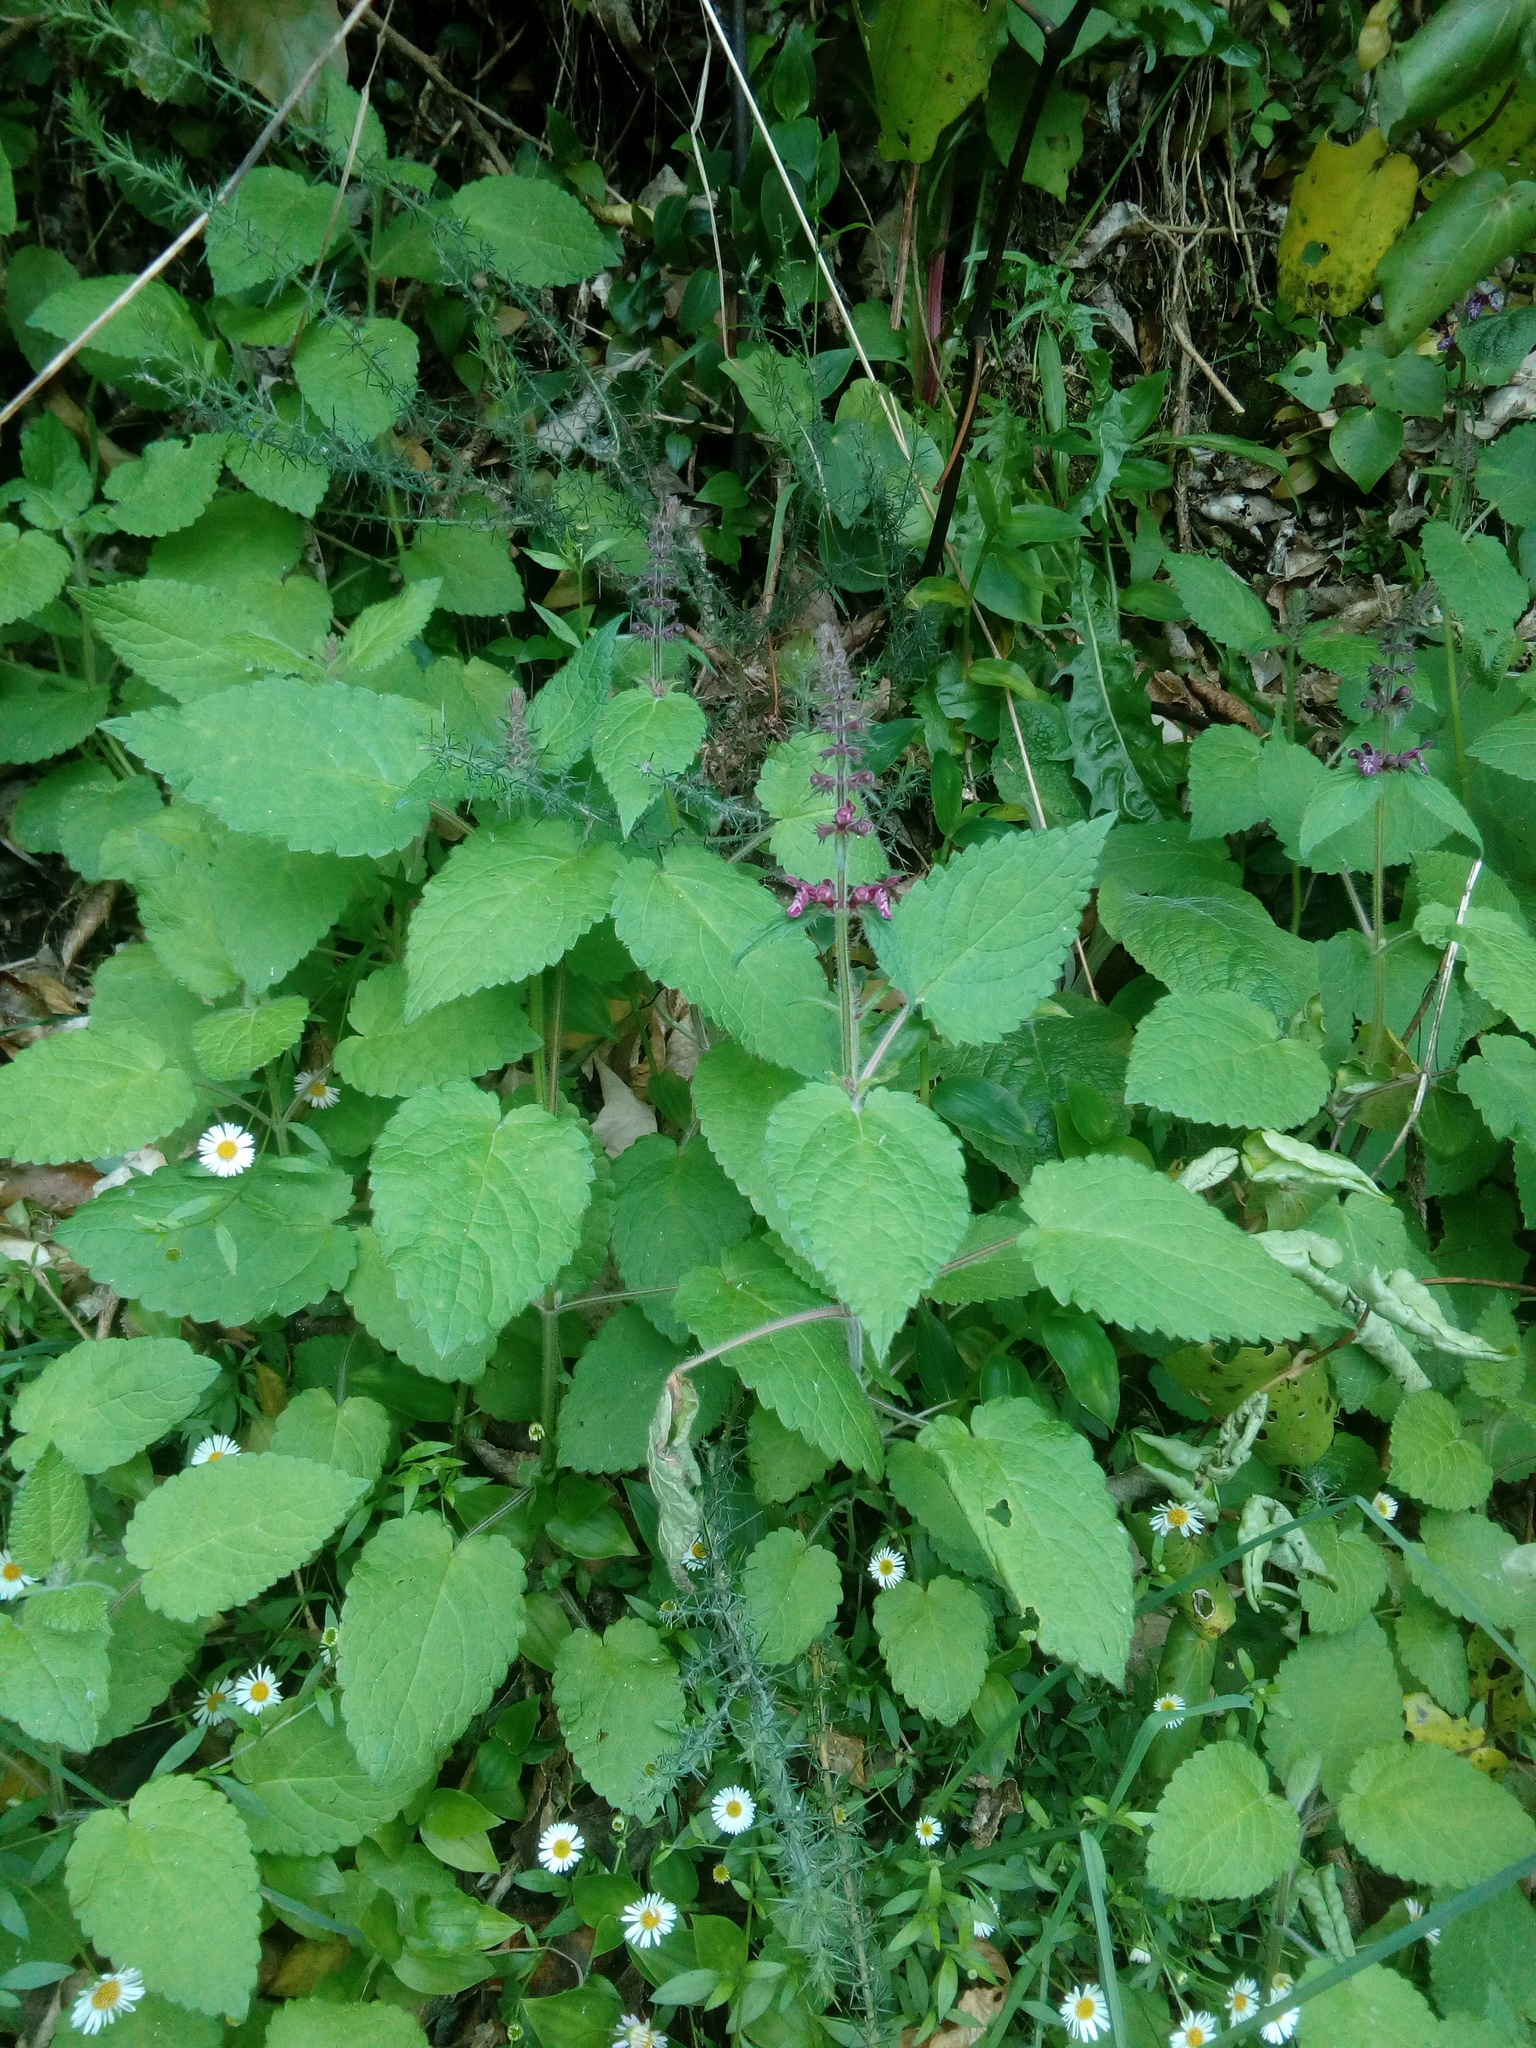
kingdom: Plantae
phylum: Tracheophyta
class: Magnoliopsida
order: Lamiales
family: Lamiaceae
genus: Stachys
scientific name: Stachys sylvatica
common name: Hedge woundwort
